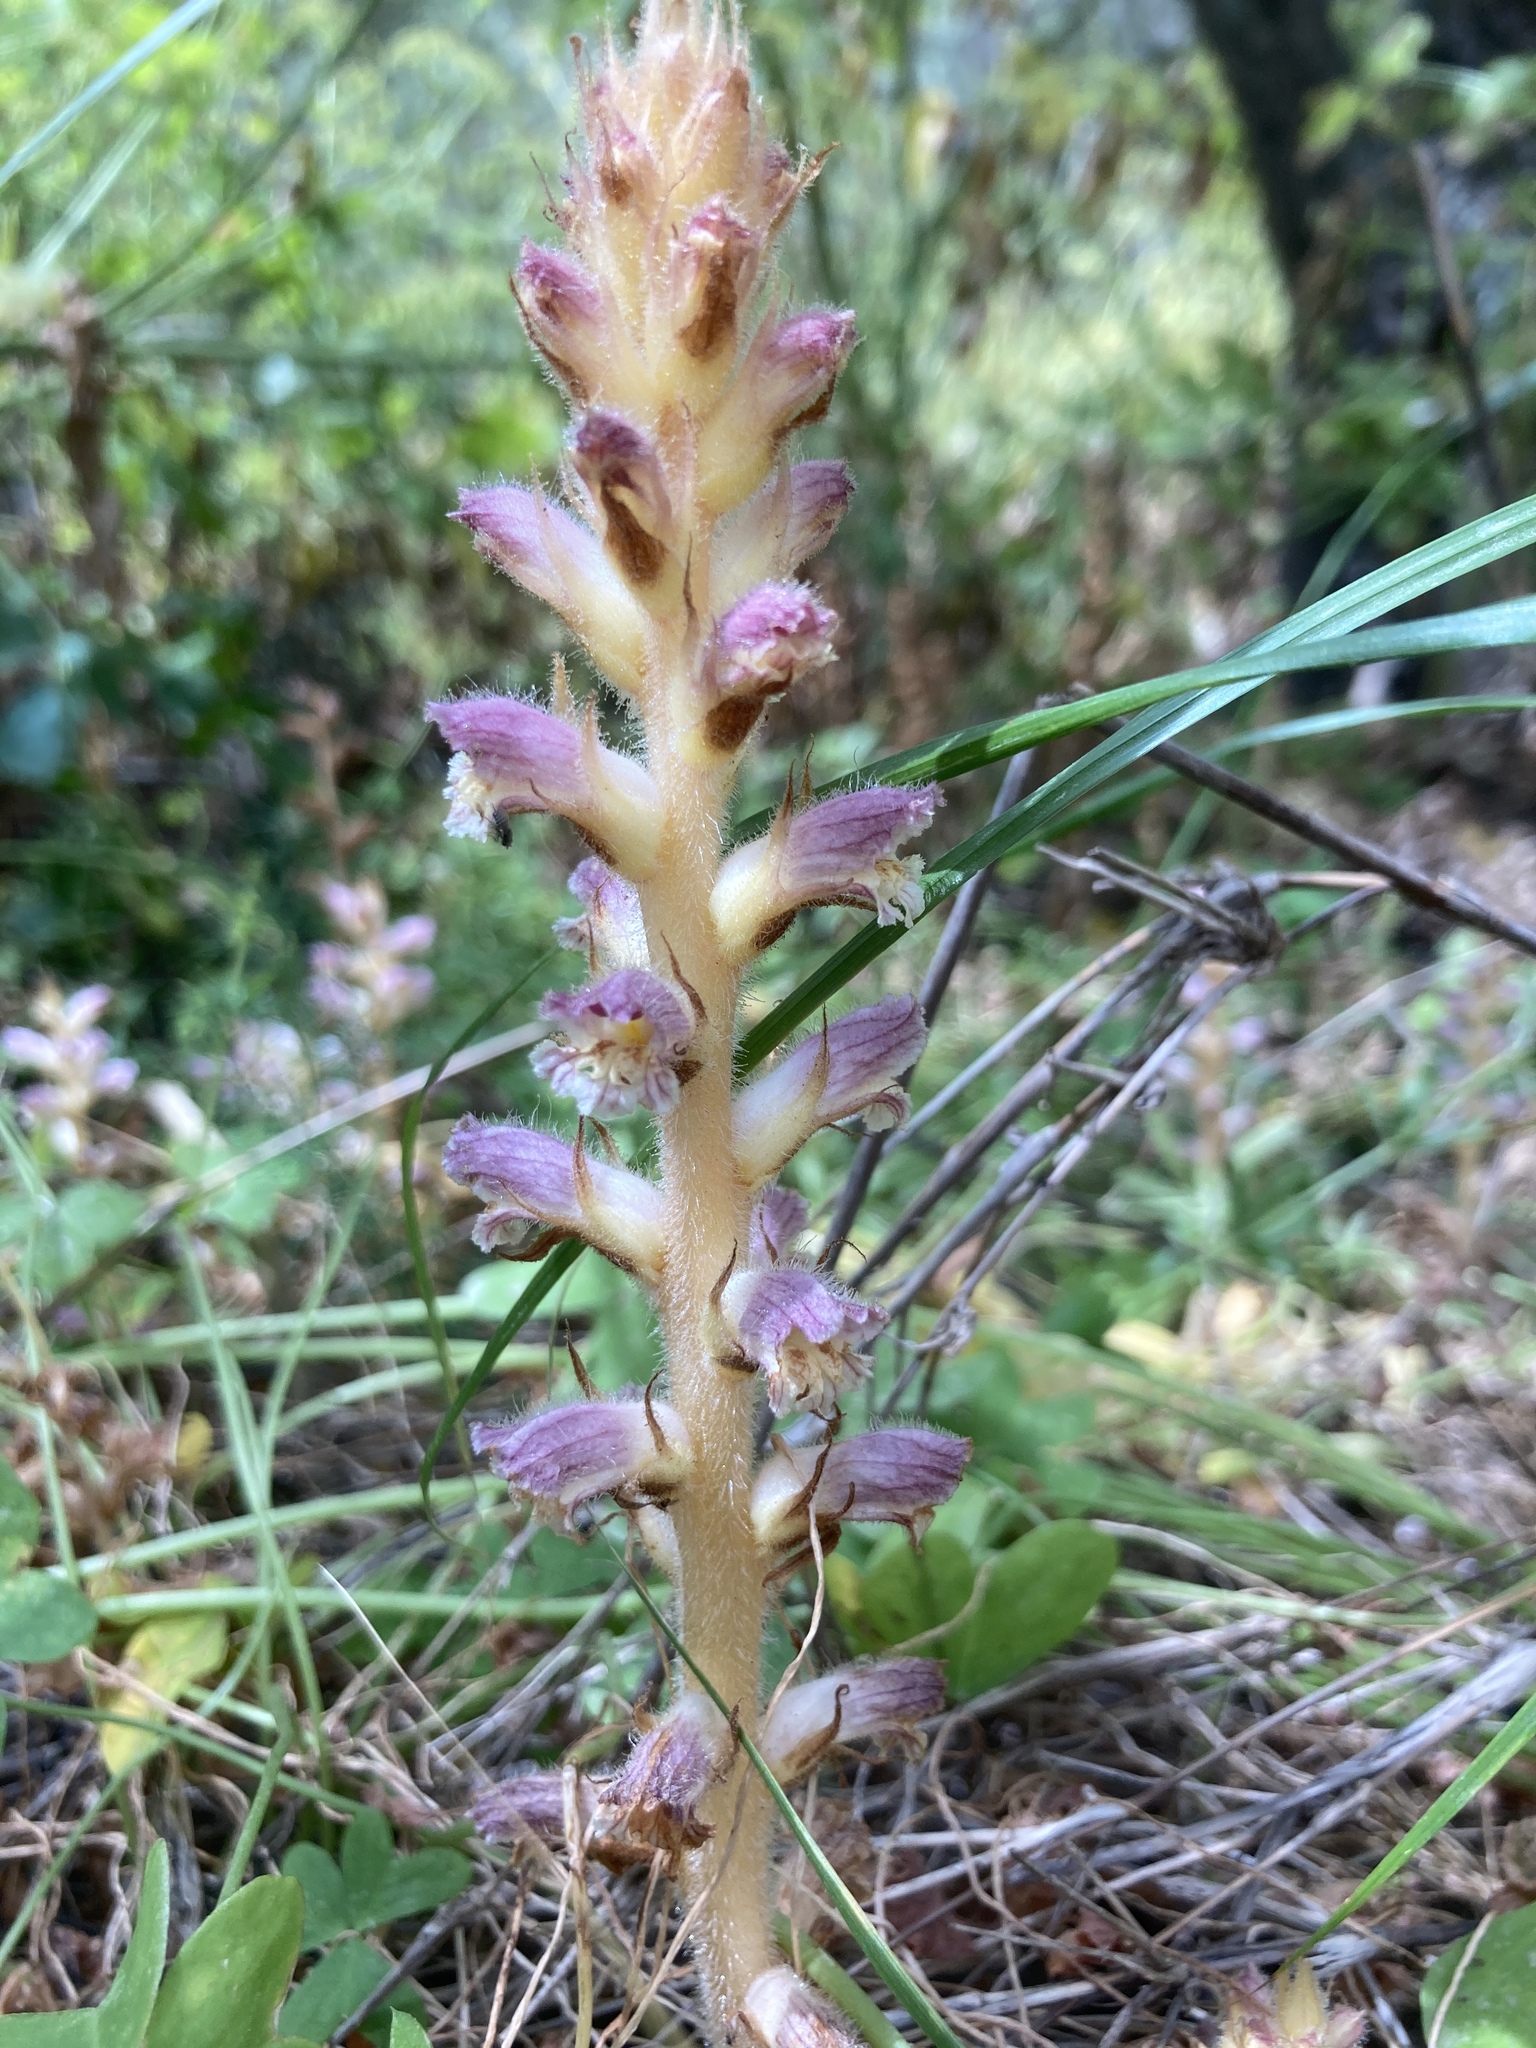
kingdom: Plantae
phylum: Tracheophyta
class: Magnoliopsida
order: Lamiales
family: Orobanchaceae
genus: Orobanche
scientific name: Orobanche pubescens
